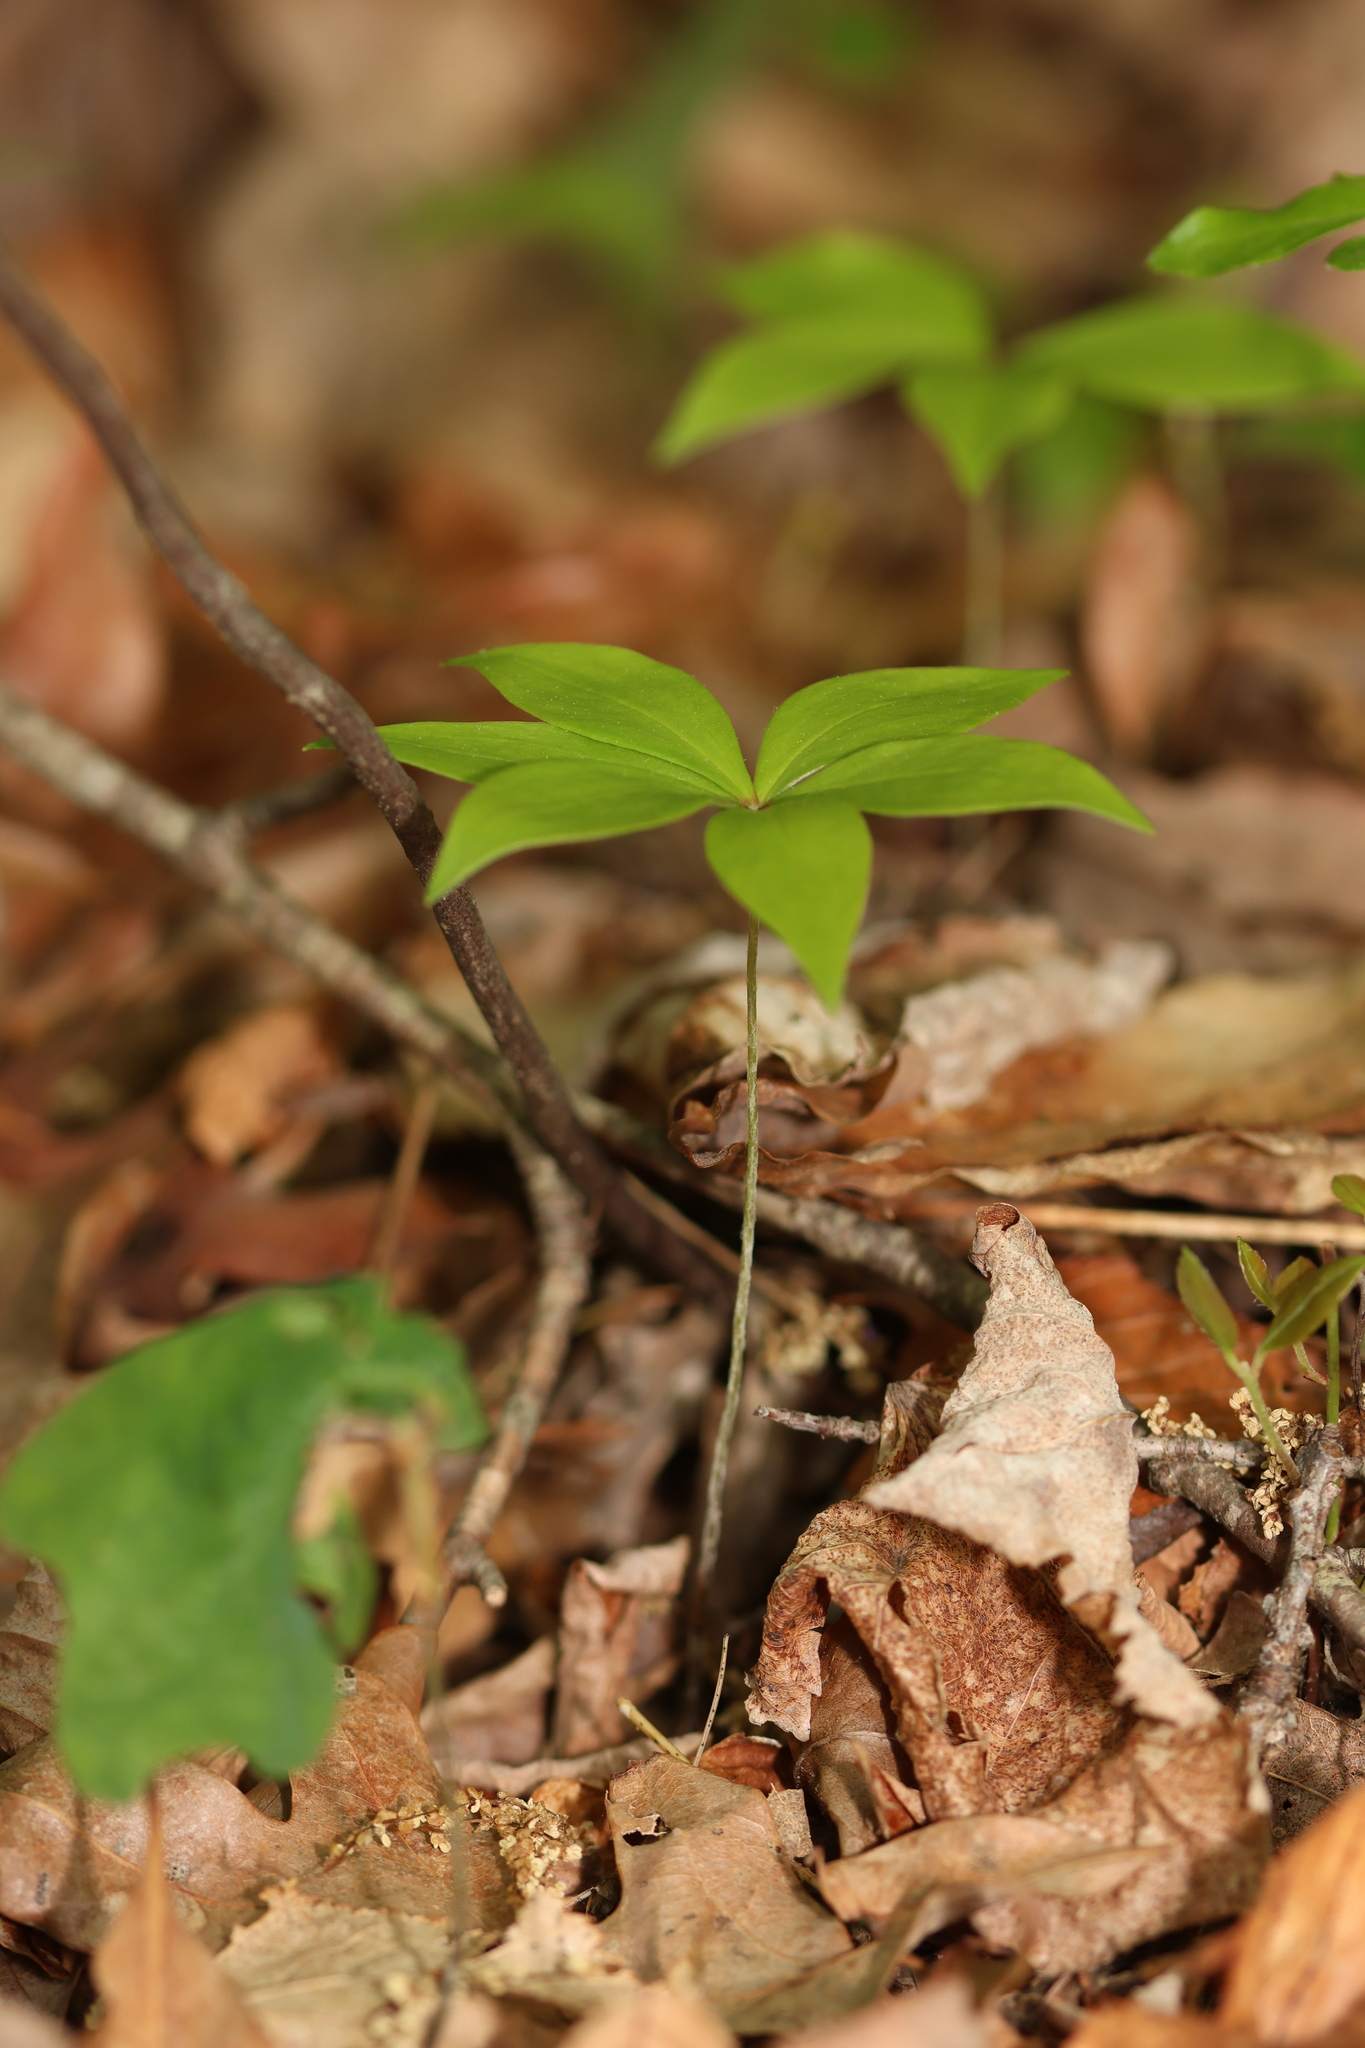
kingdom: Plantae
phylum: Tracheophyta
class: Liliopsida
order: Liliales
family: Liliaceae
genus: Medeola
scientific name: Medeola virginiana
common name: Indian cucumber-root
